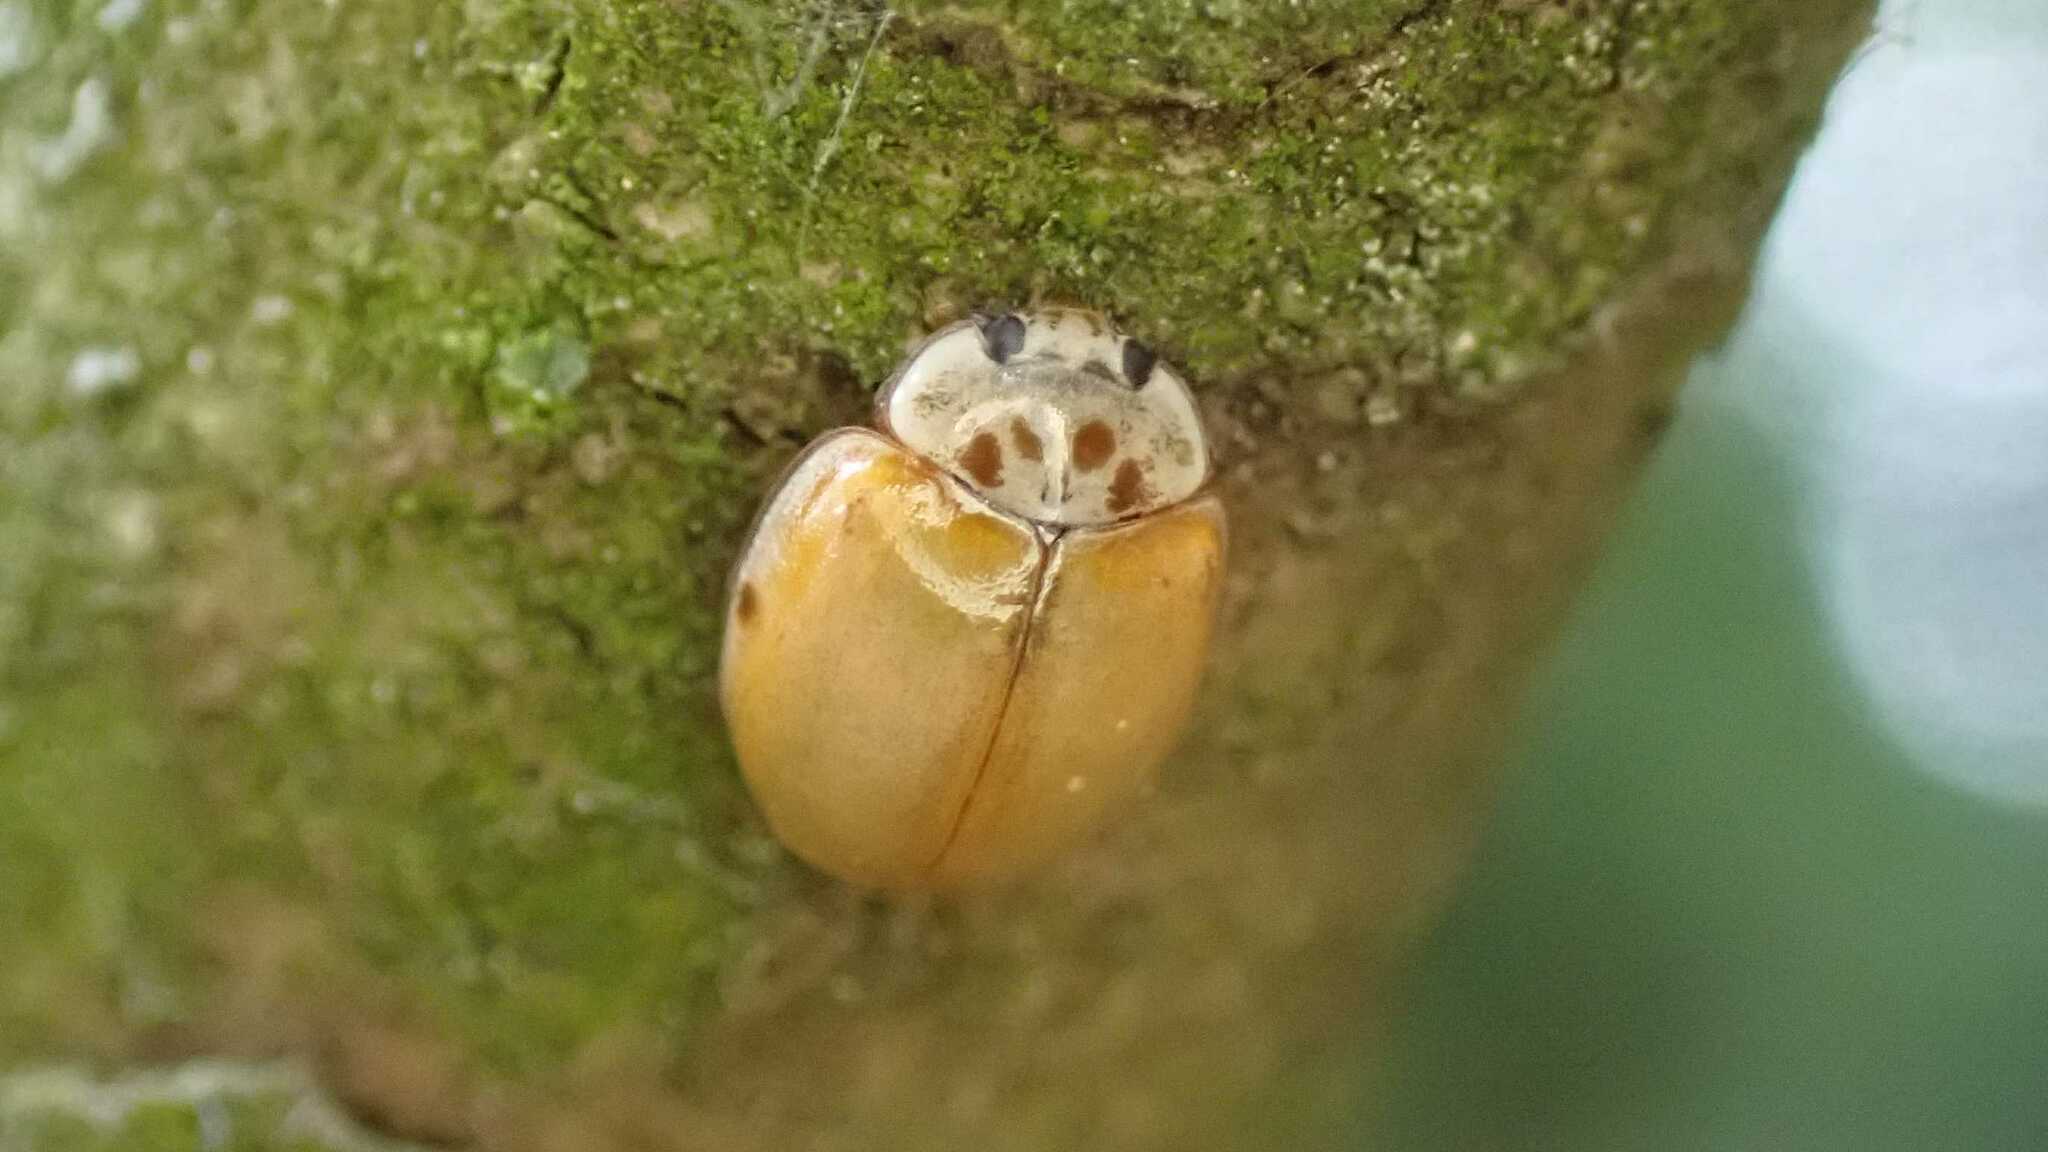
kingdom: Animalia
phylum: Arthropoda
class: Insecta
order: Coleoptera
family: Coccinellidae
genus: Adalia
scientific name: Adalia decempunctata
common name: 10-spot ladybird
